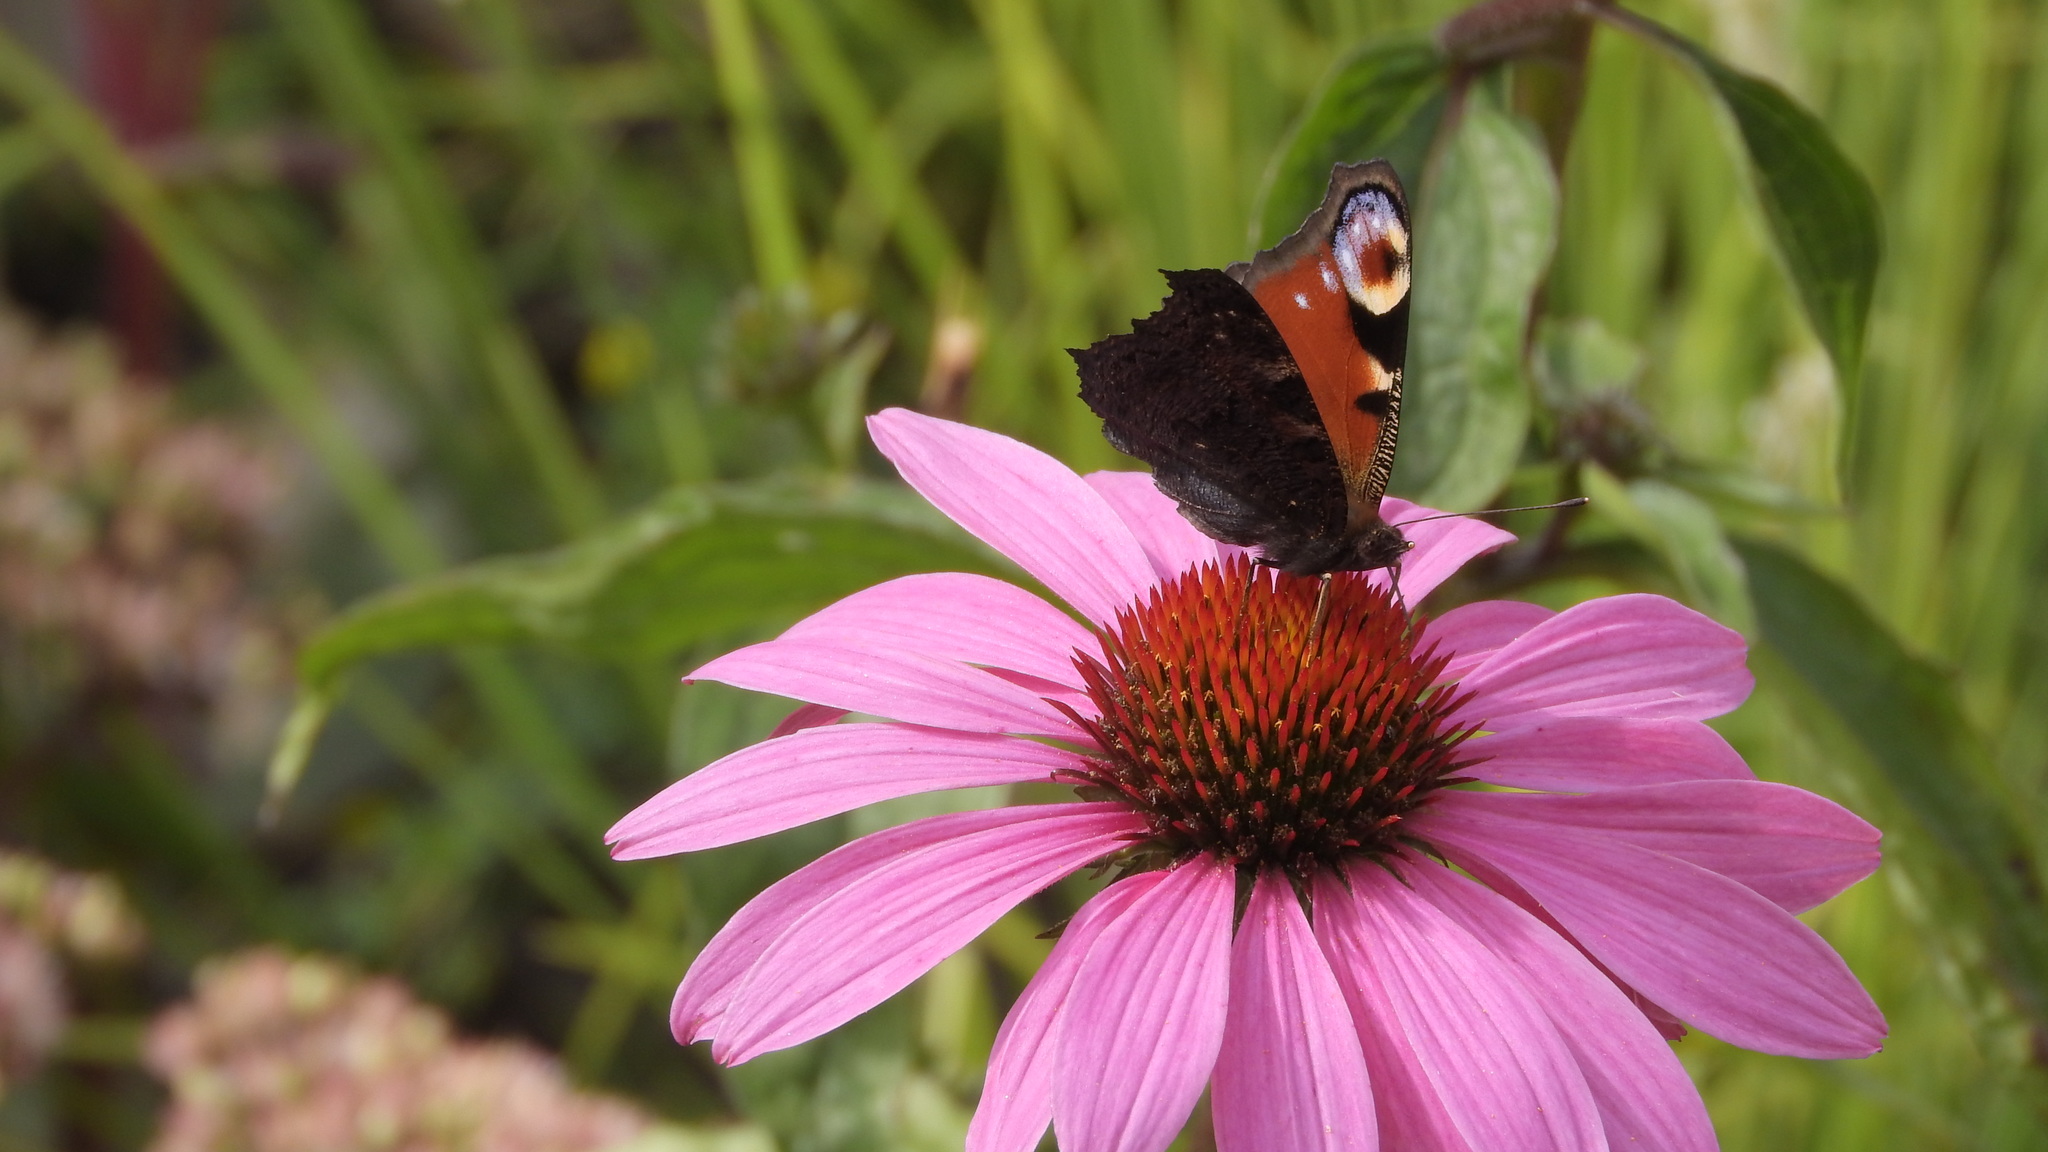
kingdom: Animalia
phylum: Arthropoda
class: Insecta
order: Lepidoptera
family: Nymphalidae
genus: Aglais
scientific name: Aglais io
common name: Peacock
